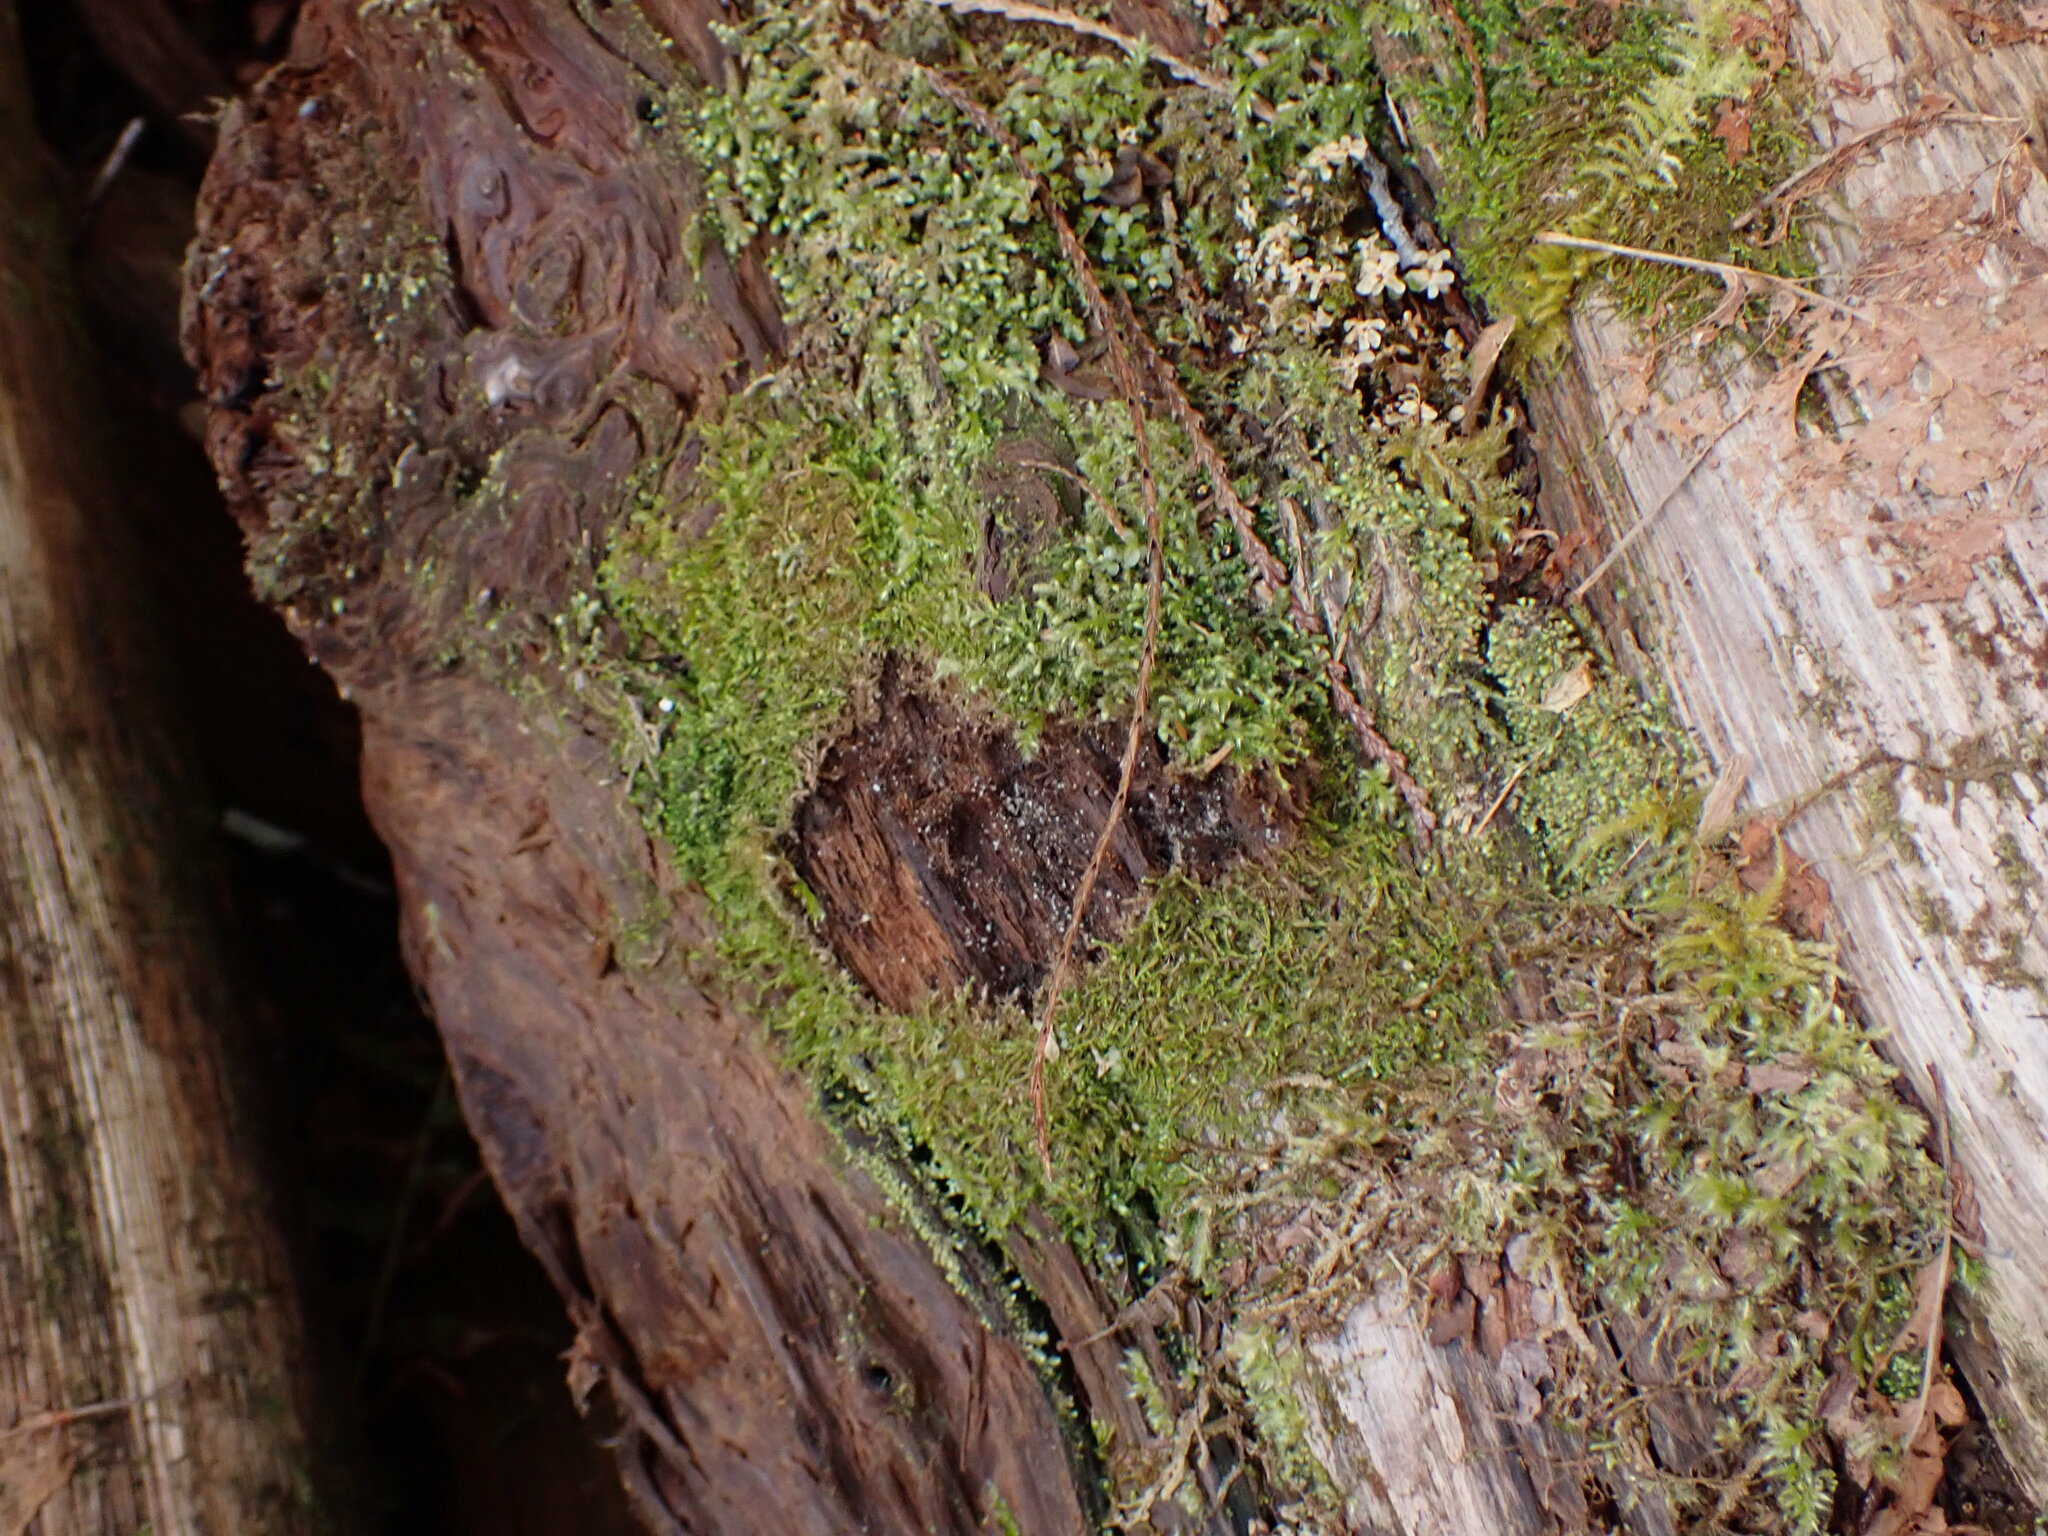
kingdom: Plantae
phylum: Marchantiophyta
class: Jungermanniopsida
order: Jungermanniales
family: Cephaloziaceae
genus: Odontoschisma
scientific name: Odontoschisma denudatum
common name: Matchstick flapwort
